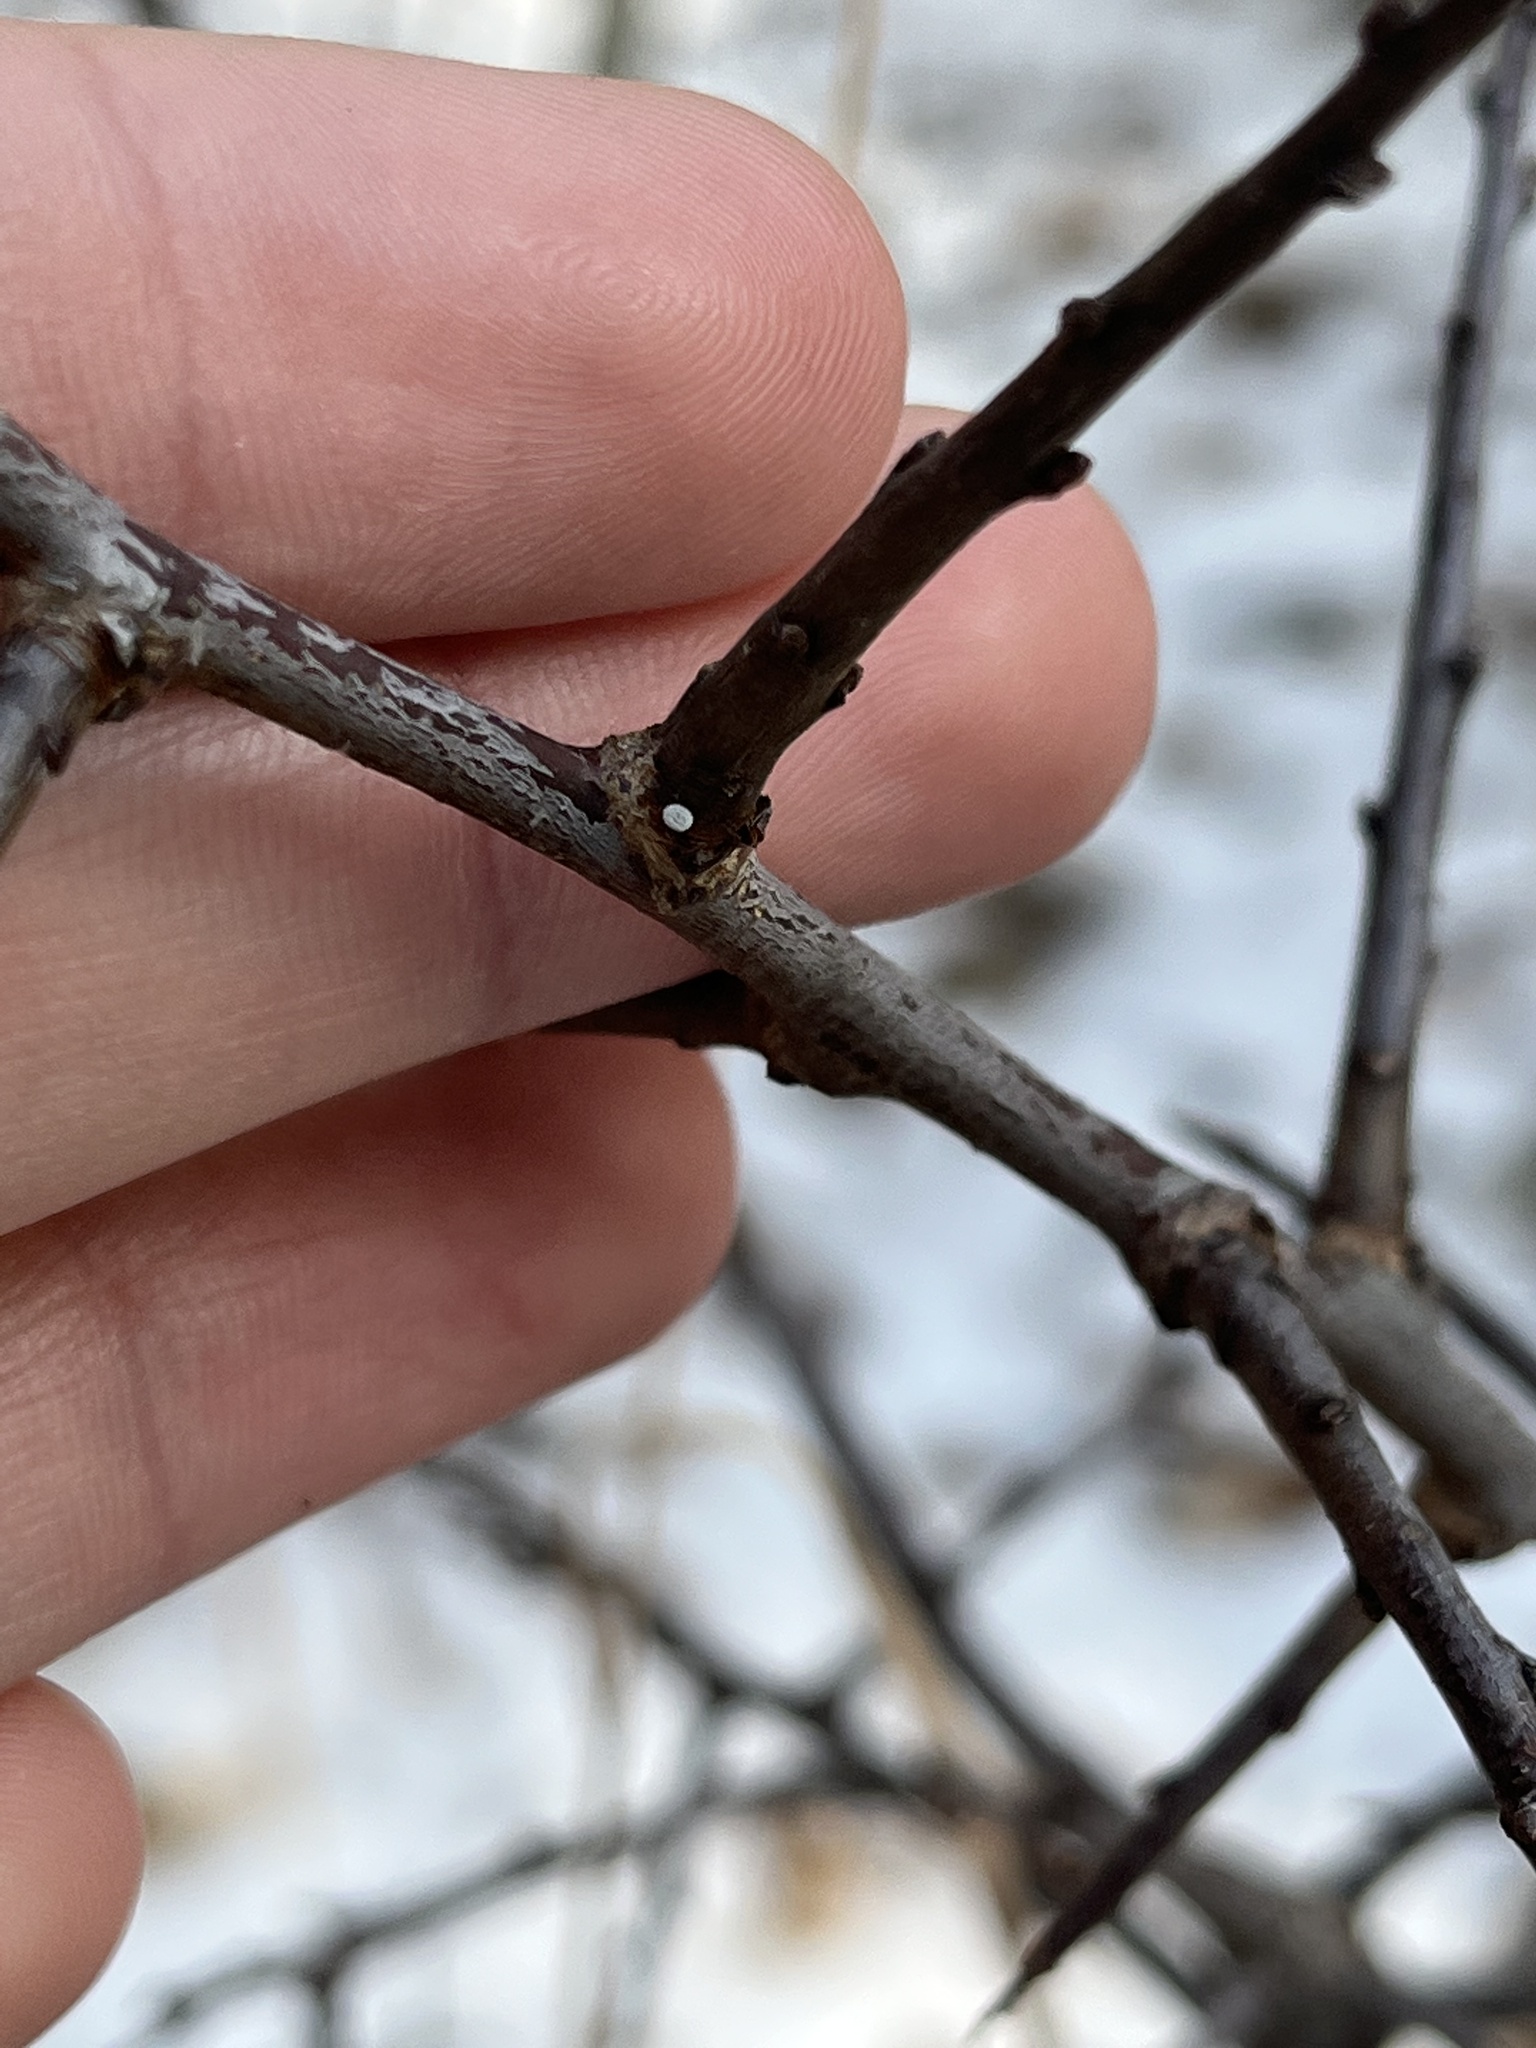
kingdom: Animalia
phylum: Arthropoda
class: Insecta
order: Lepidoptera
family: Lycaenidae
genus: Thecla
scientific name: Thecla betulae
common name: Brown hairstreak
